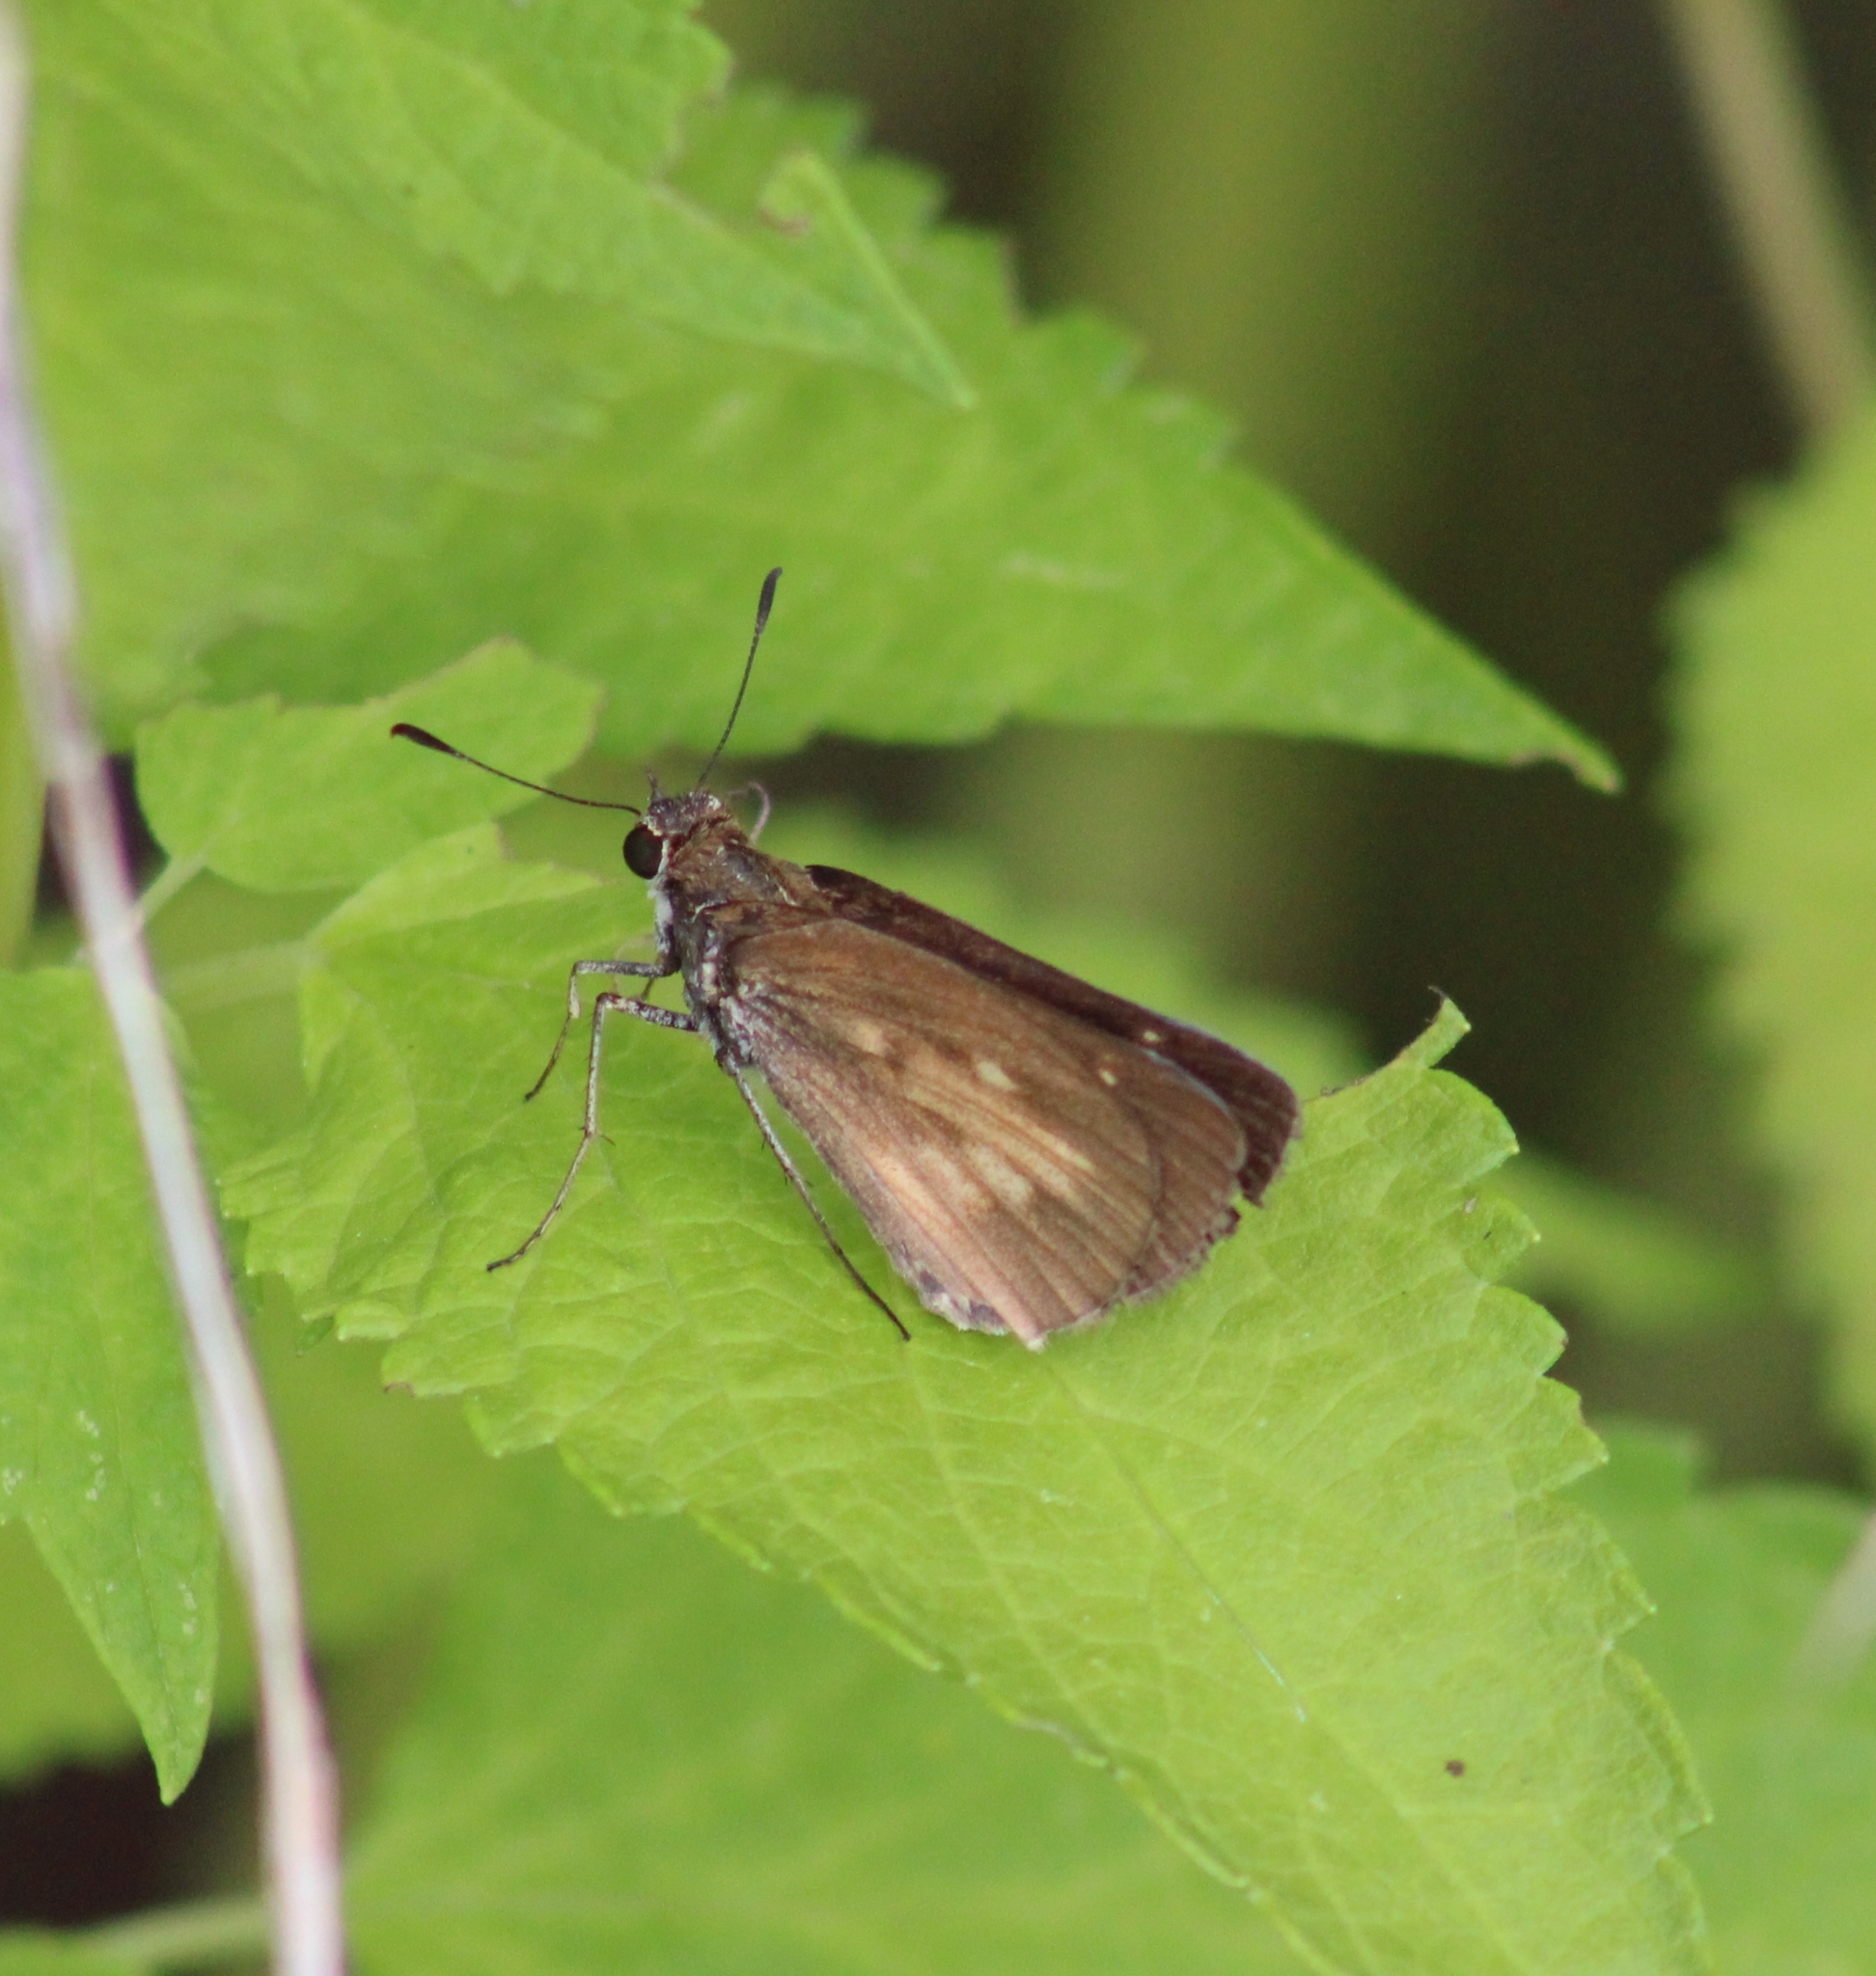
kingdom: Animalia
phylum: Arthropoda
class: Insecta
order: Lepidoptera
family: Hesperiidae
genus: Poanes
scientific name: Poanes viator
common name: Broad-winged skipper
